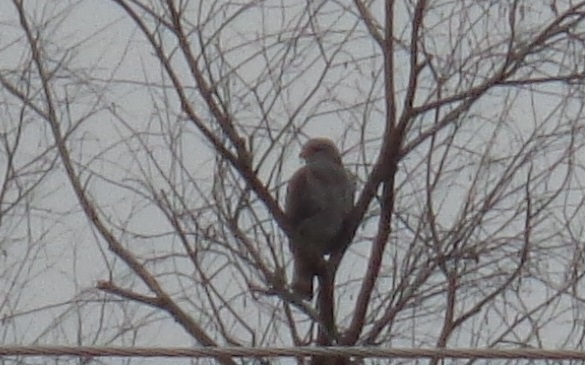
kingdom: Animalia
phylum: Chordata
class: Aves
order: Accipitriformes
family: Accipitridae
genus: Buteo
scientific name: Buteo nitidus
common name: Grey-lined hawk
